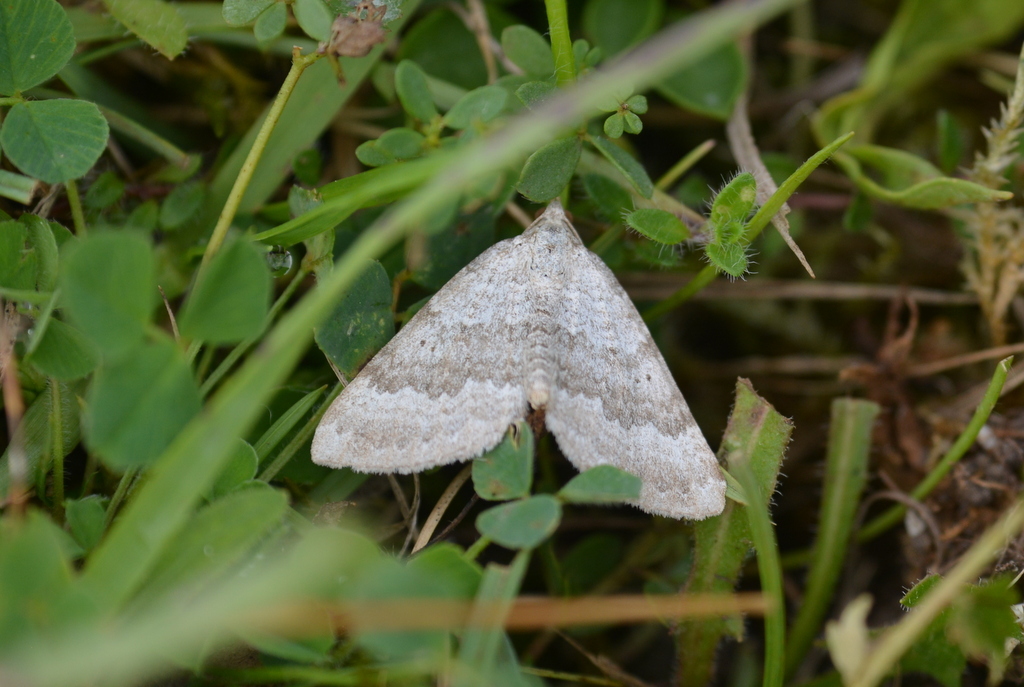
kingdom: Animalia
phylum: Arthropoda
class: Insecta
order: Lepidoptera
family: Geometridae
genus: Scotopteryx
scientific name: Scotopteryx bipunctaria
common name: Chalk carpet
